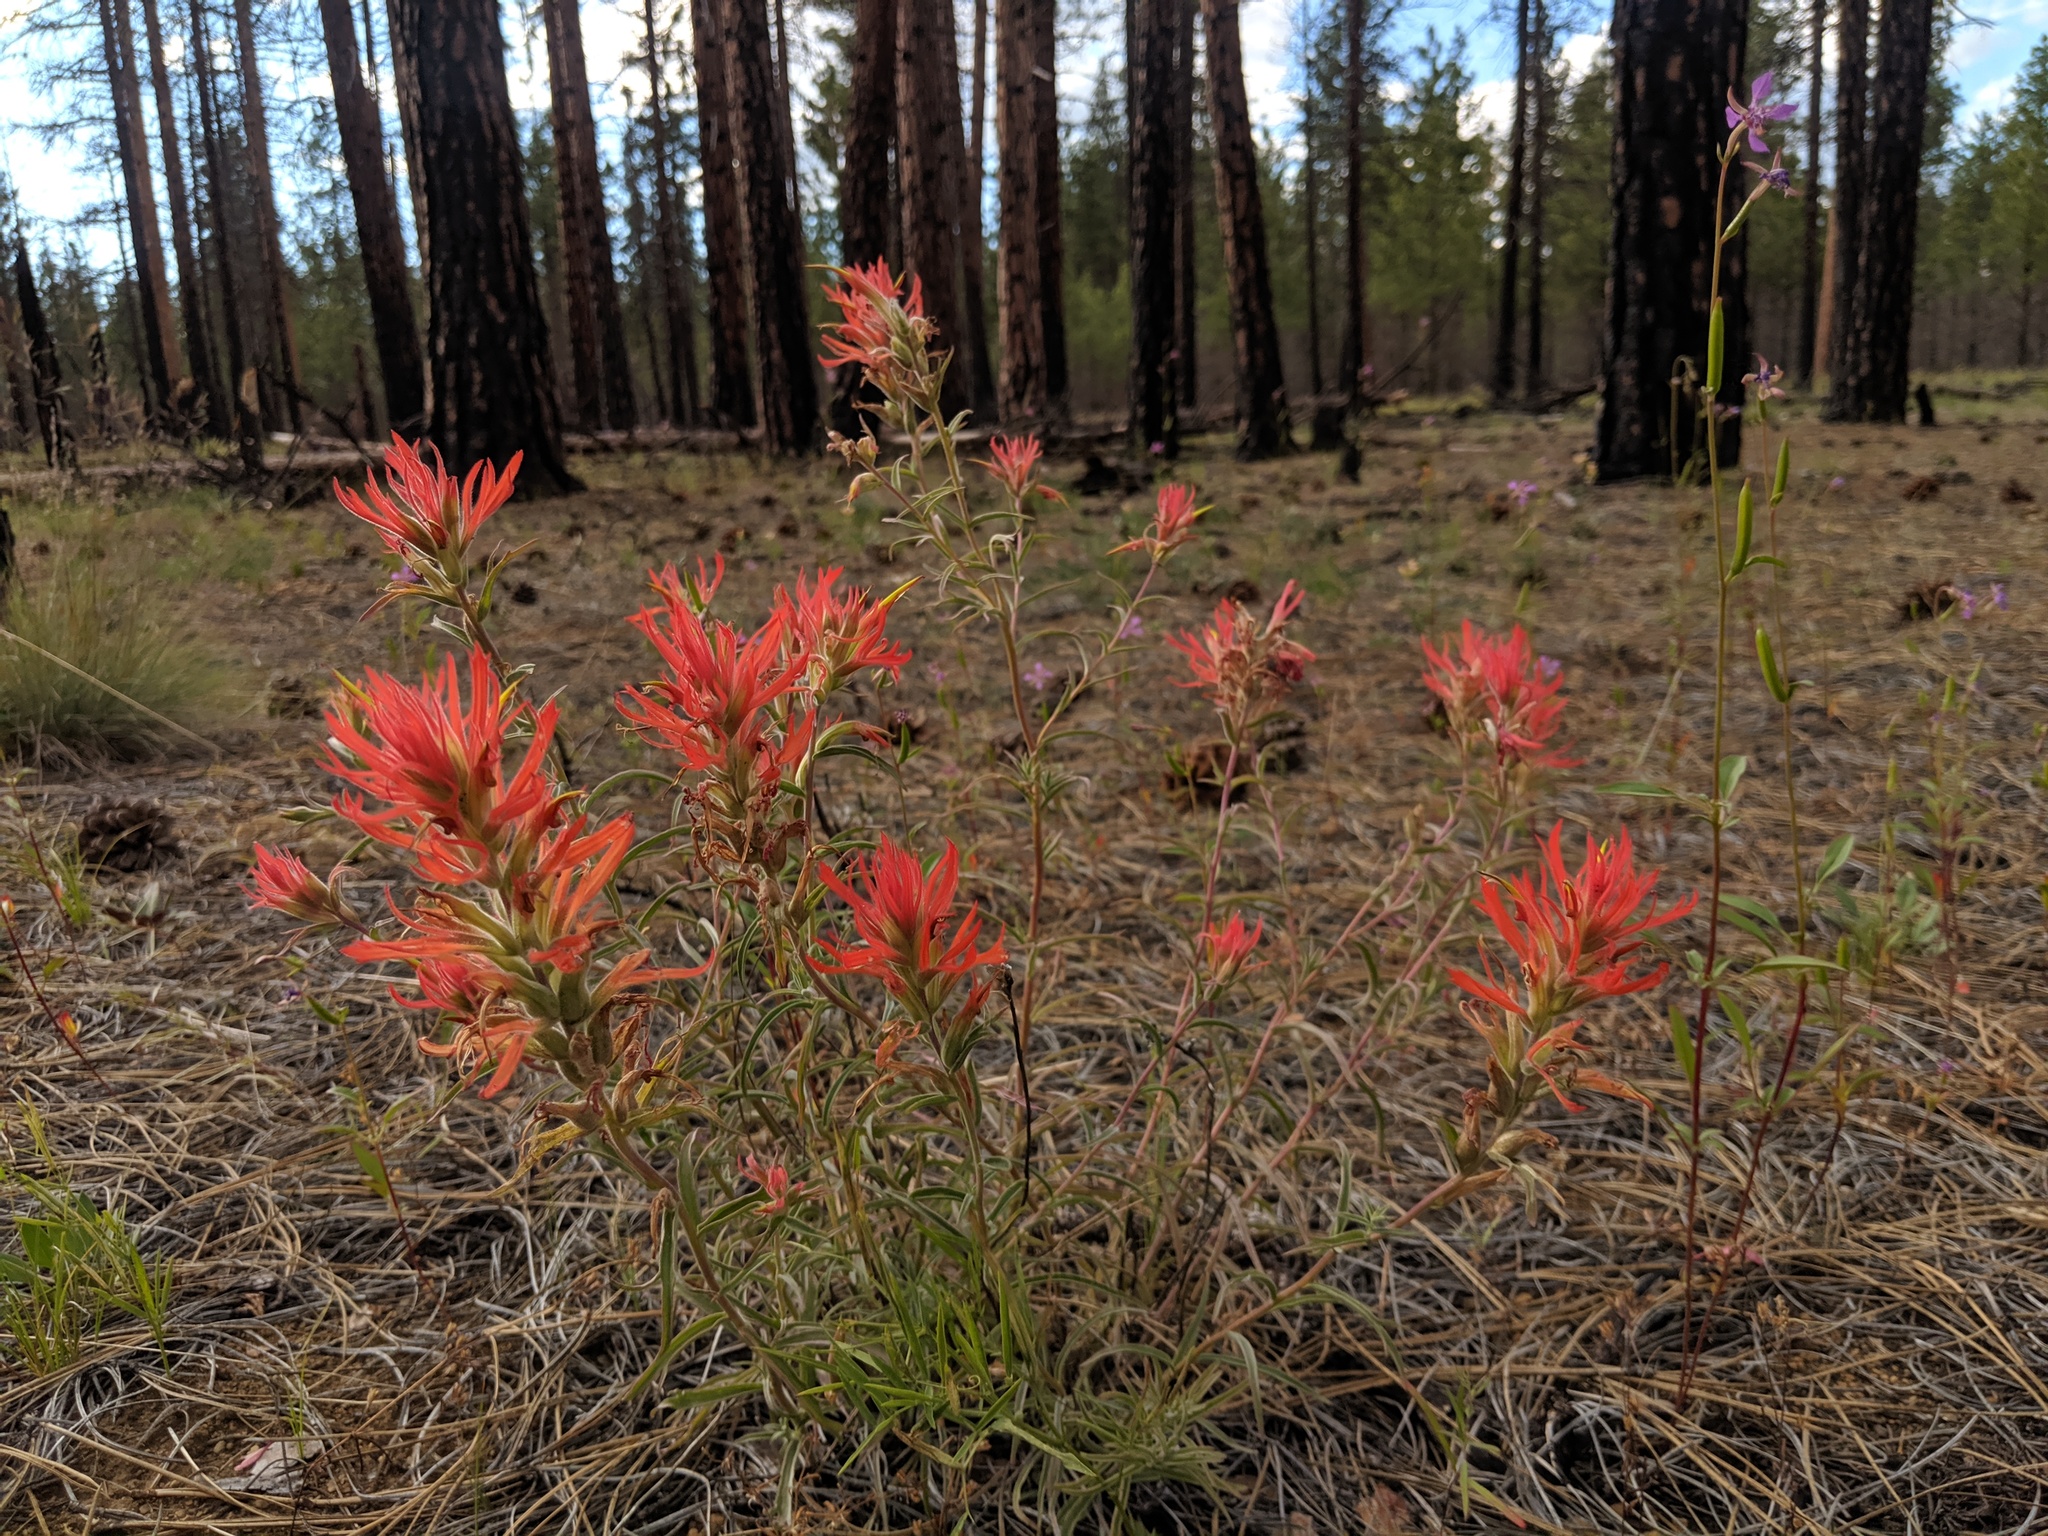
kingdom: Plantae
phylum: Tracheophyta
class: Magnoliopsida
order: Lamiales
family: Orobanchaceae
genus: Castilleja
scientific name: Castilleja peckiana
